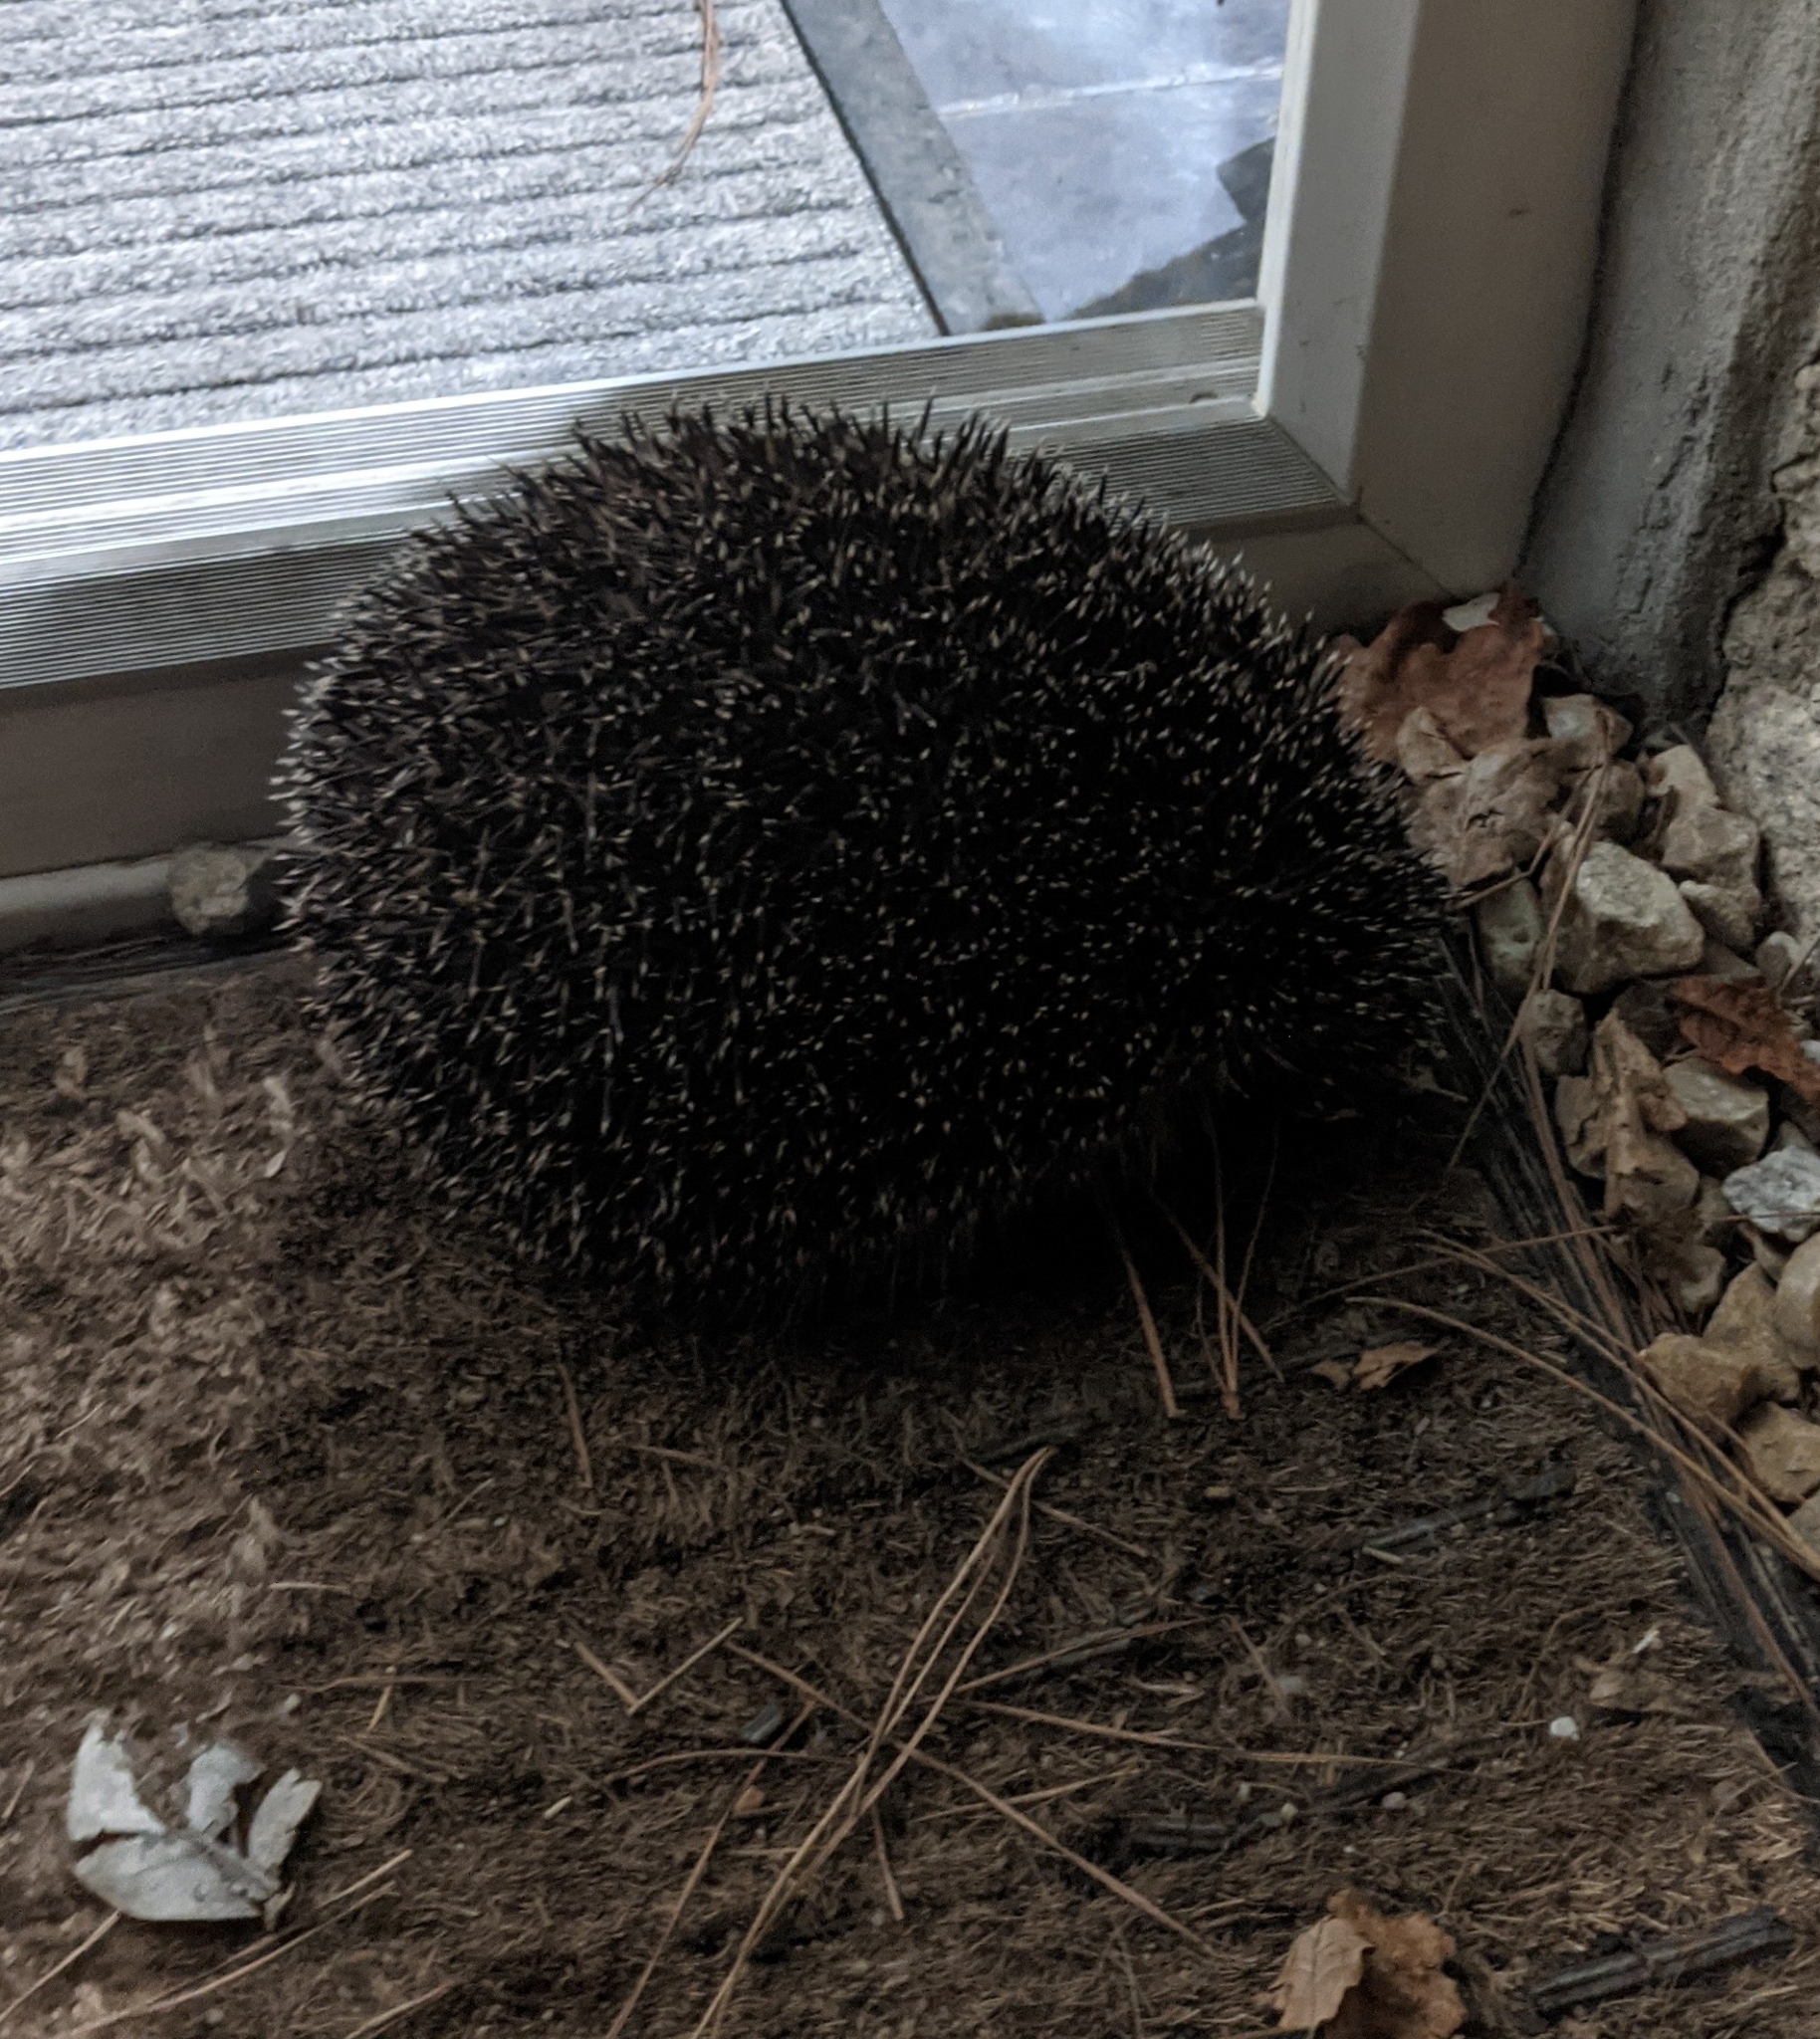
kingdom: Animalia
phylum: Chordata
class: Mammalia
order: Erinaceomorpha
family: Erinaceidae
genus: Erinaceus
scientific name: Erinaceus europaeus
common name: West european hedgehog
